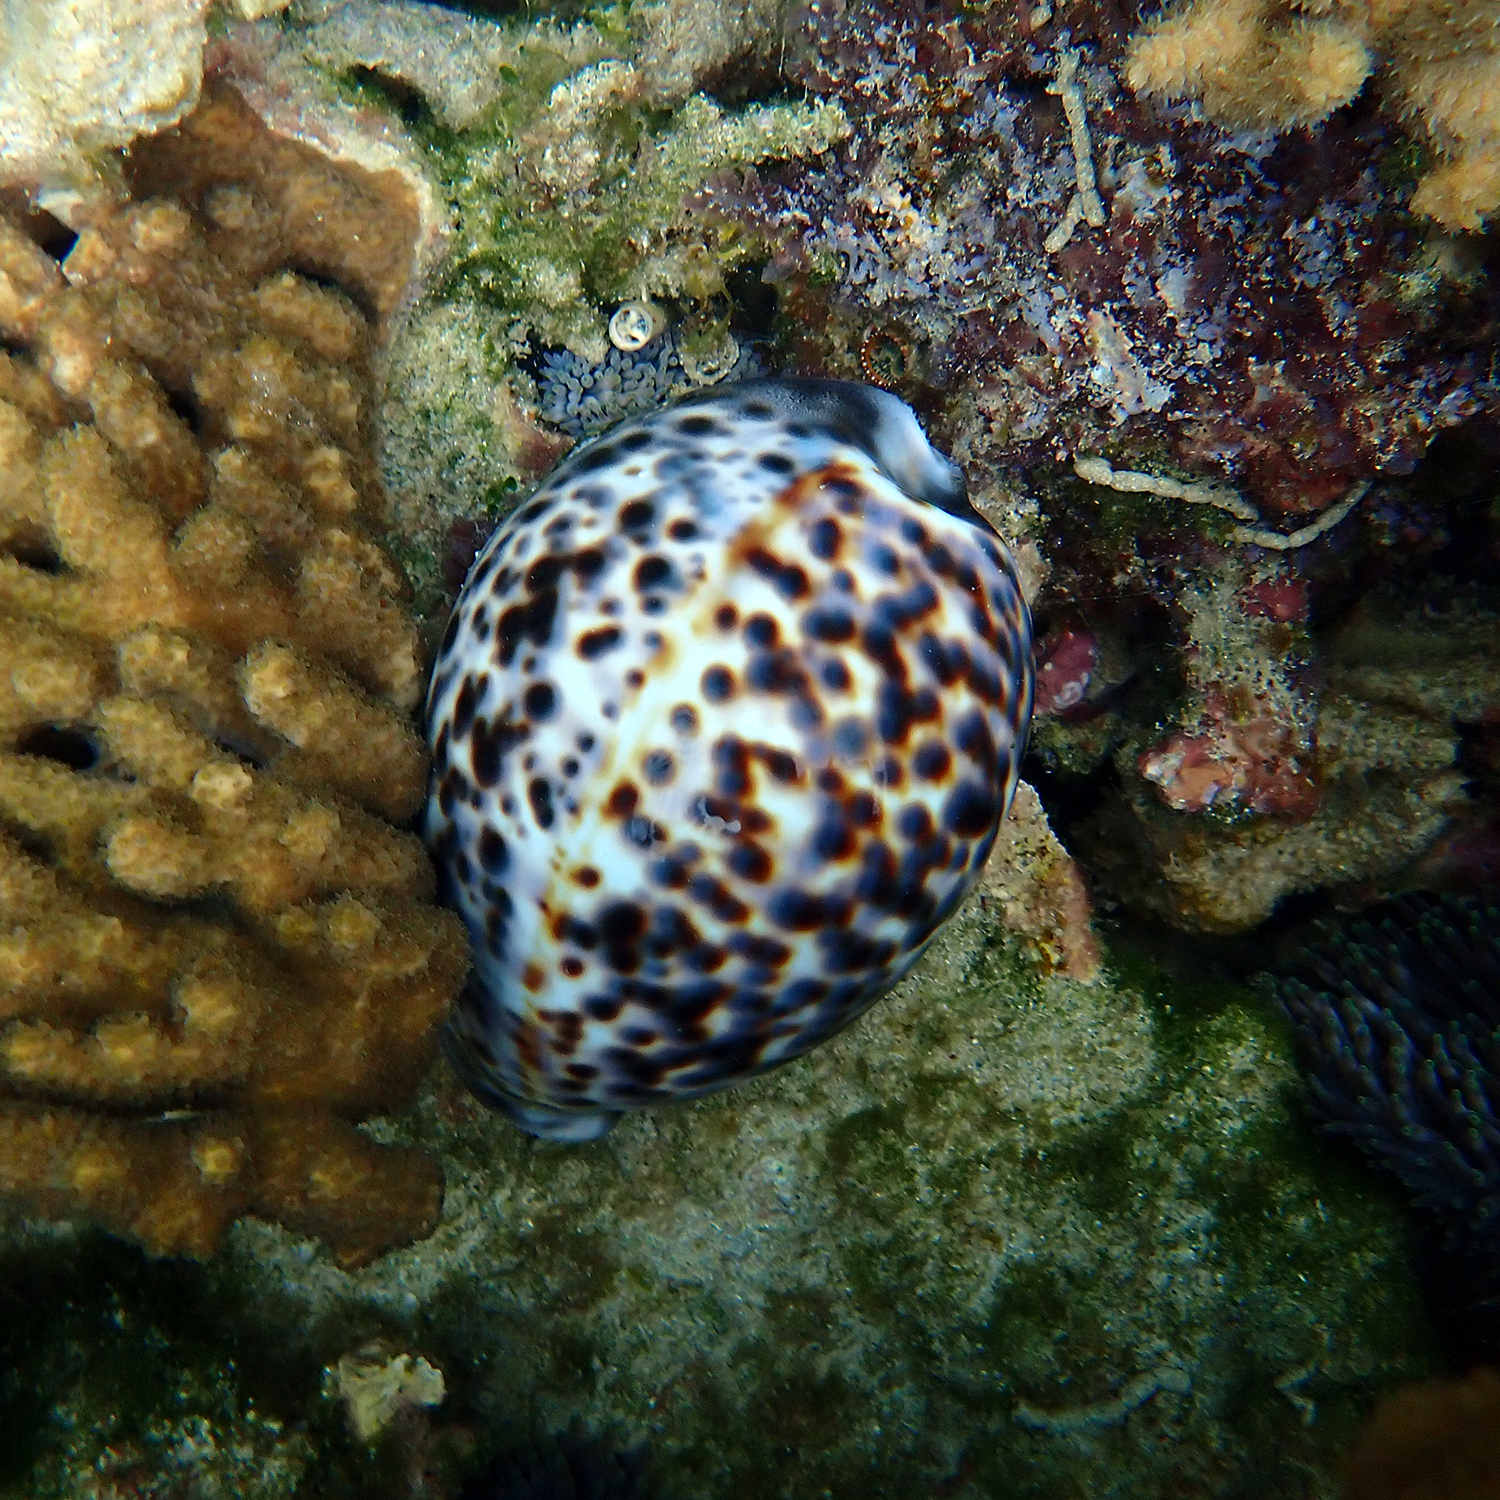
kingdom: Animalia
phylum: Mollusca
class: Gastropoda
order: Littorinimorpha
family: Cypraeidae
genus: Cypraea
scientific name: Cypraea tigris
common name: Tiger cowrie
